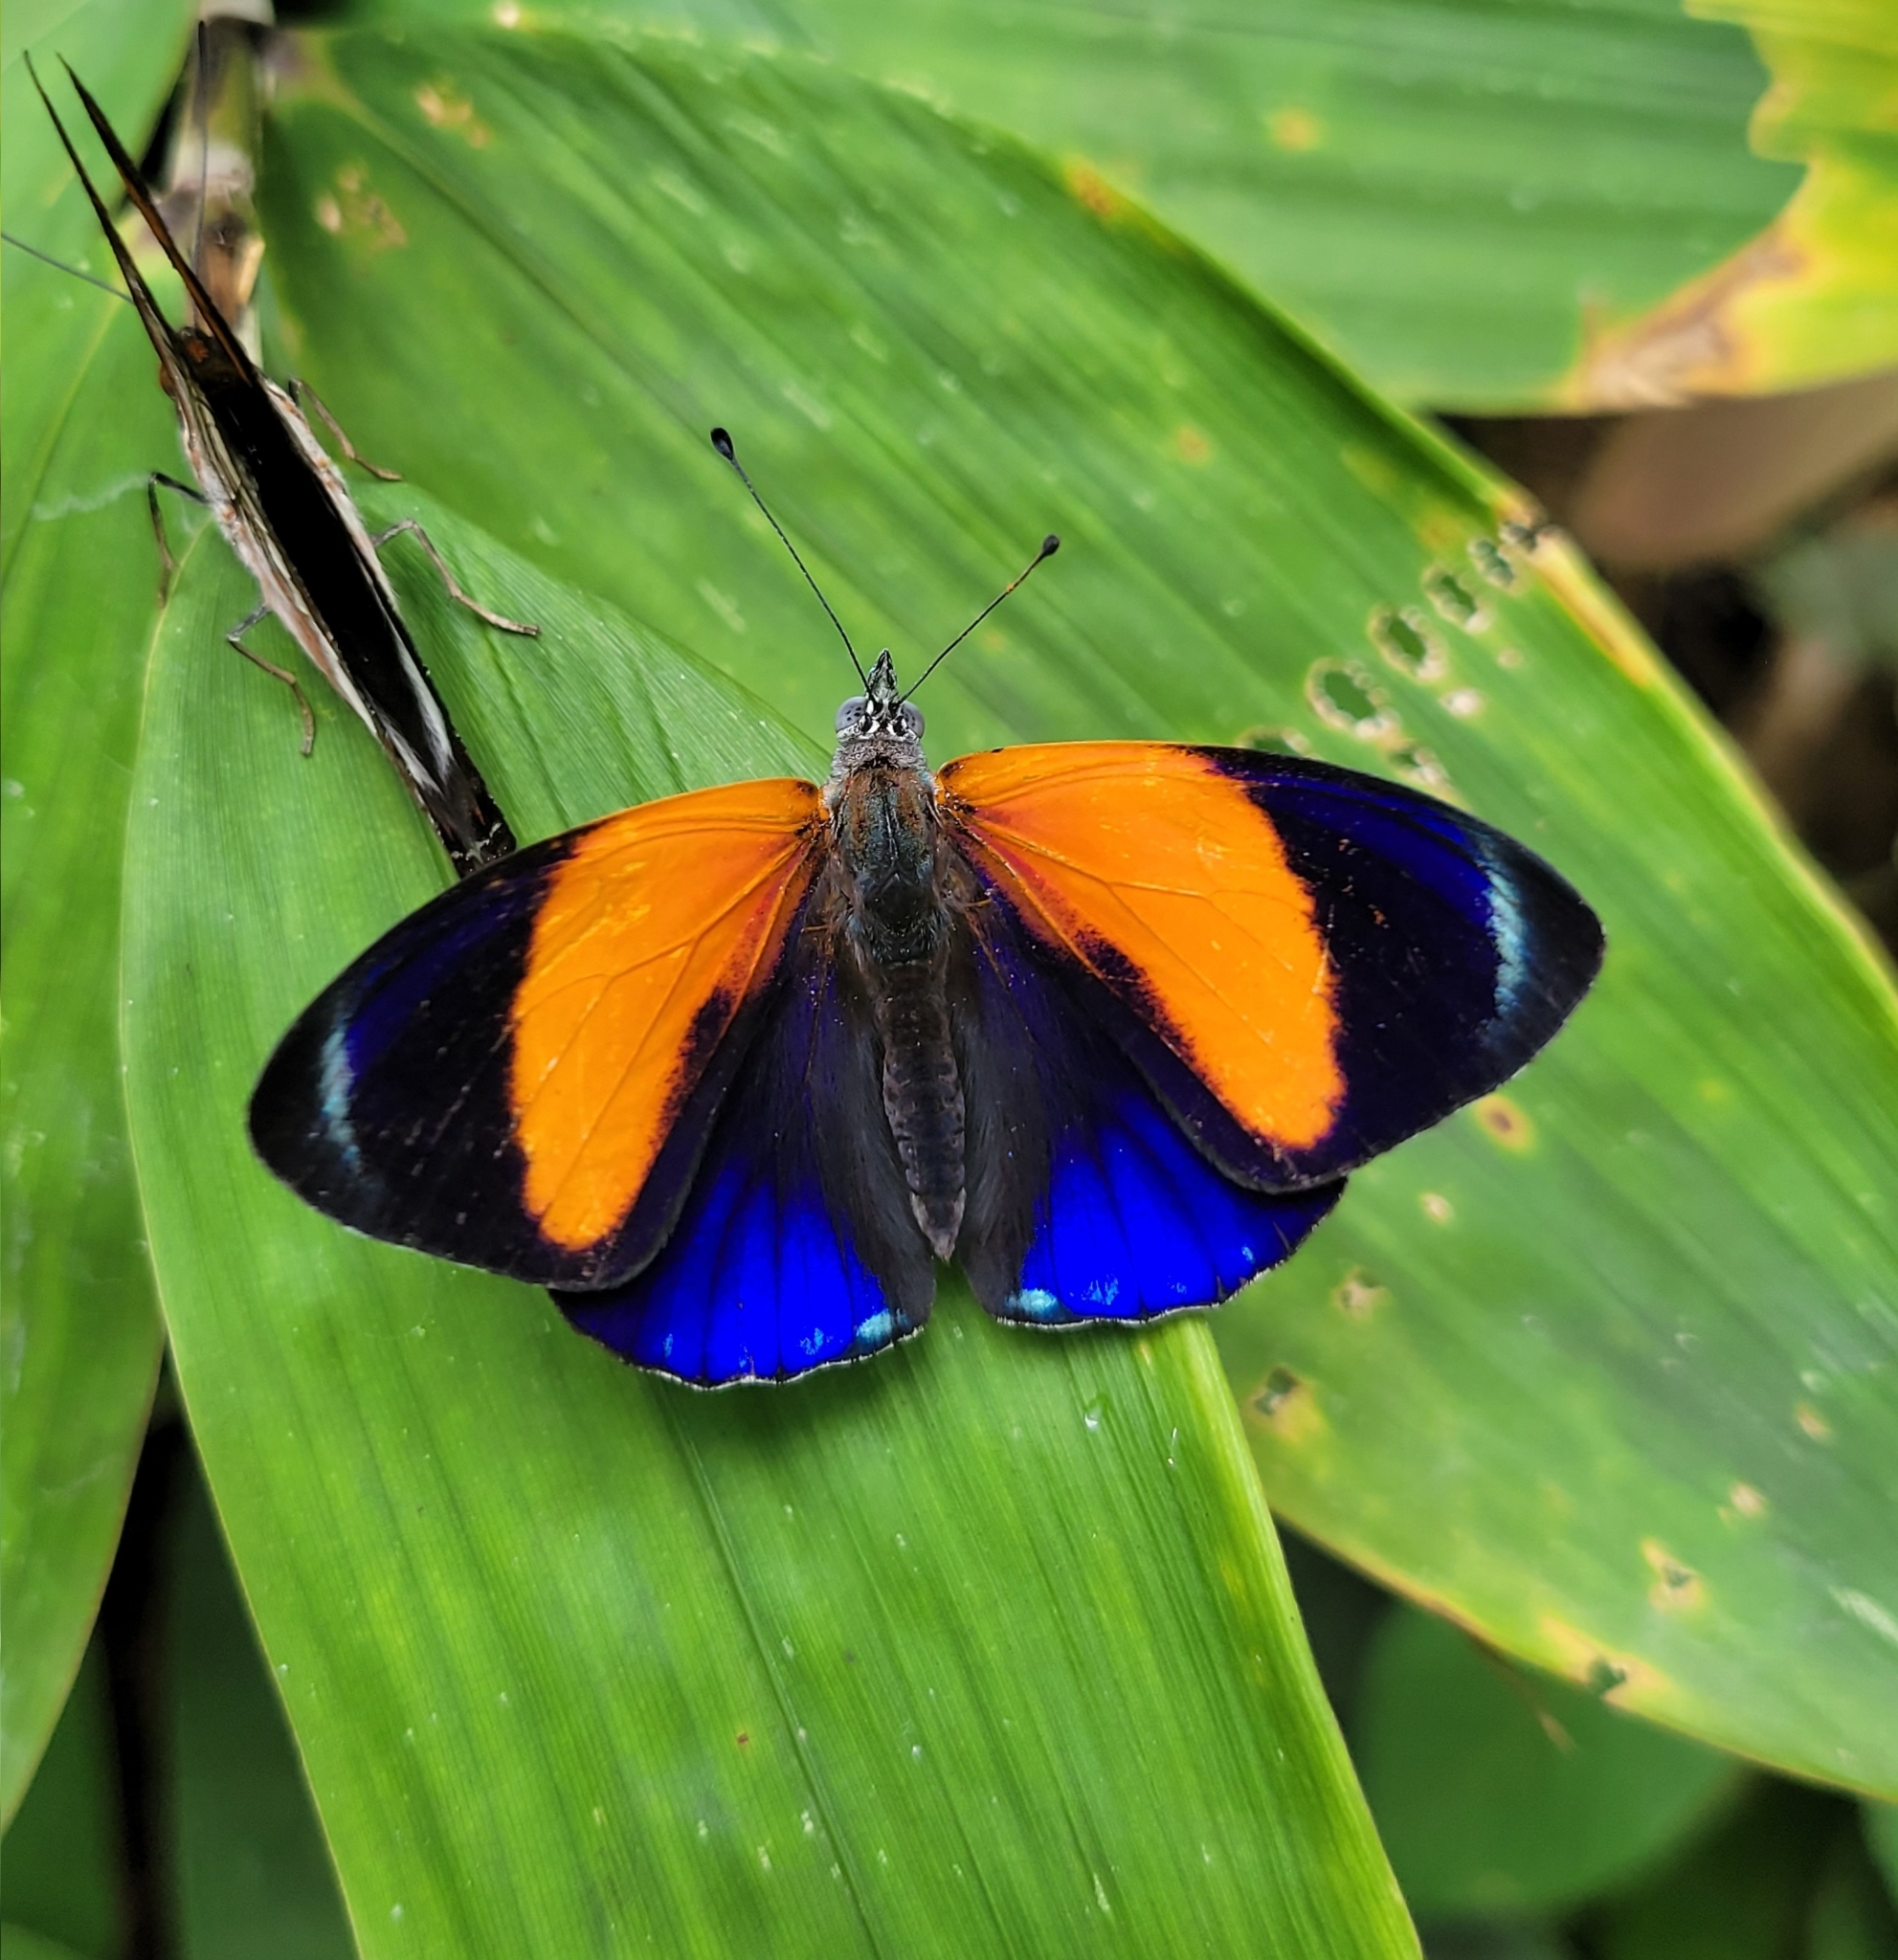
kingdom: Animalia
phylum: Arthropoda
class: Insecta
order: Lepidoptera
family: Nymphalidae
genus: Callithea
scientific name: Callithea markii
